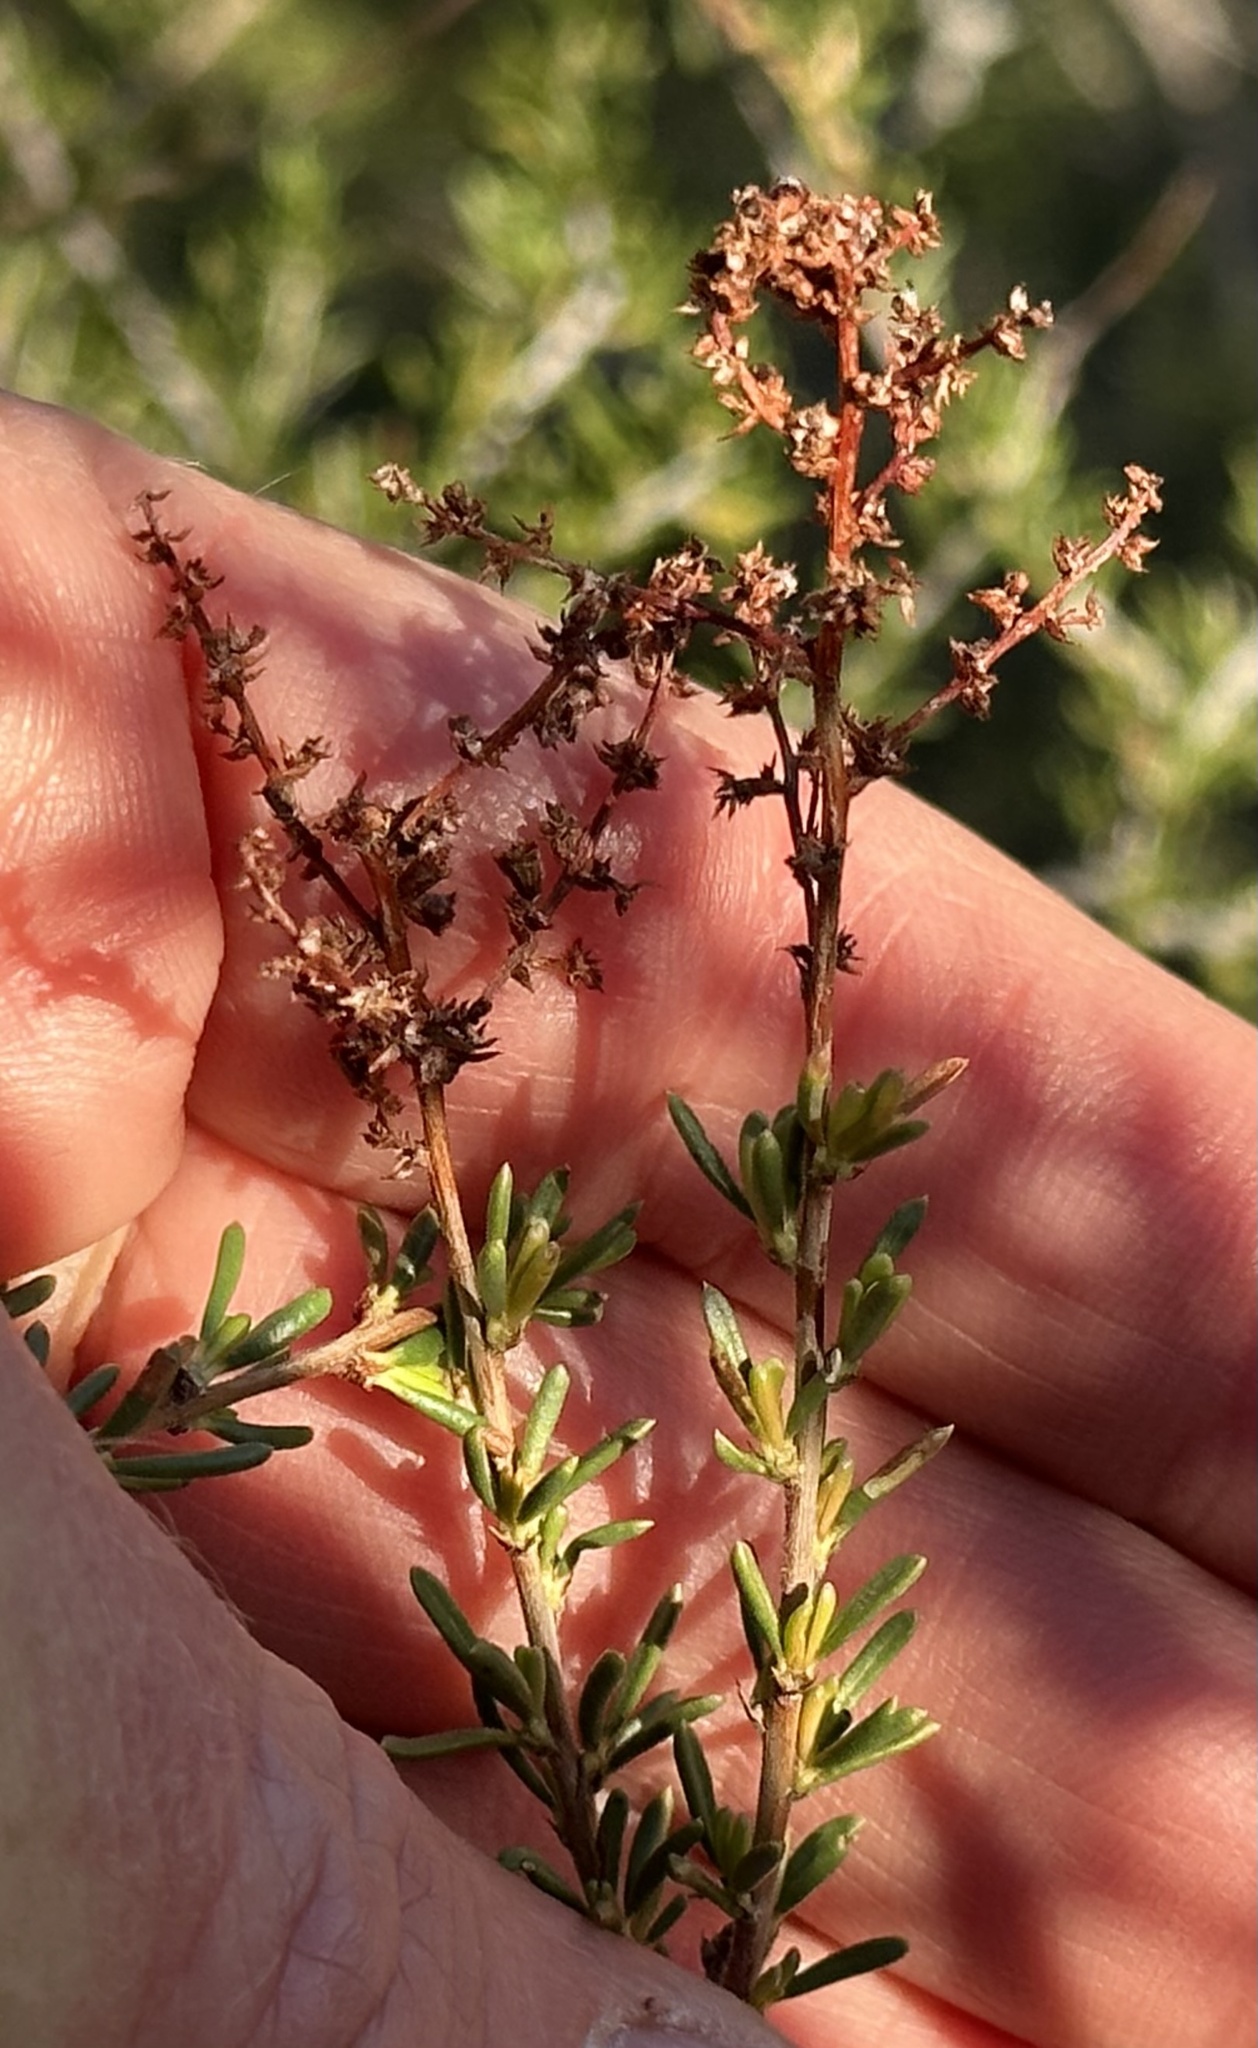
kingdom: Plantae
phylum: Tracheophyta
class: Magnoliopsida
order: Rosales
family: Rosaceae
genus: Adenostoma
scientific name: Adenostoma fasciculatum
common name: Chamise
